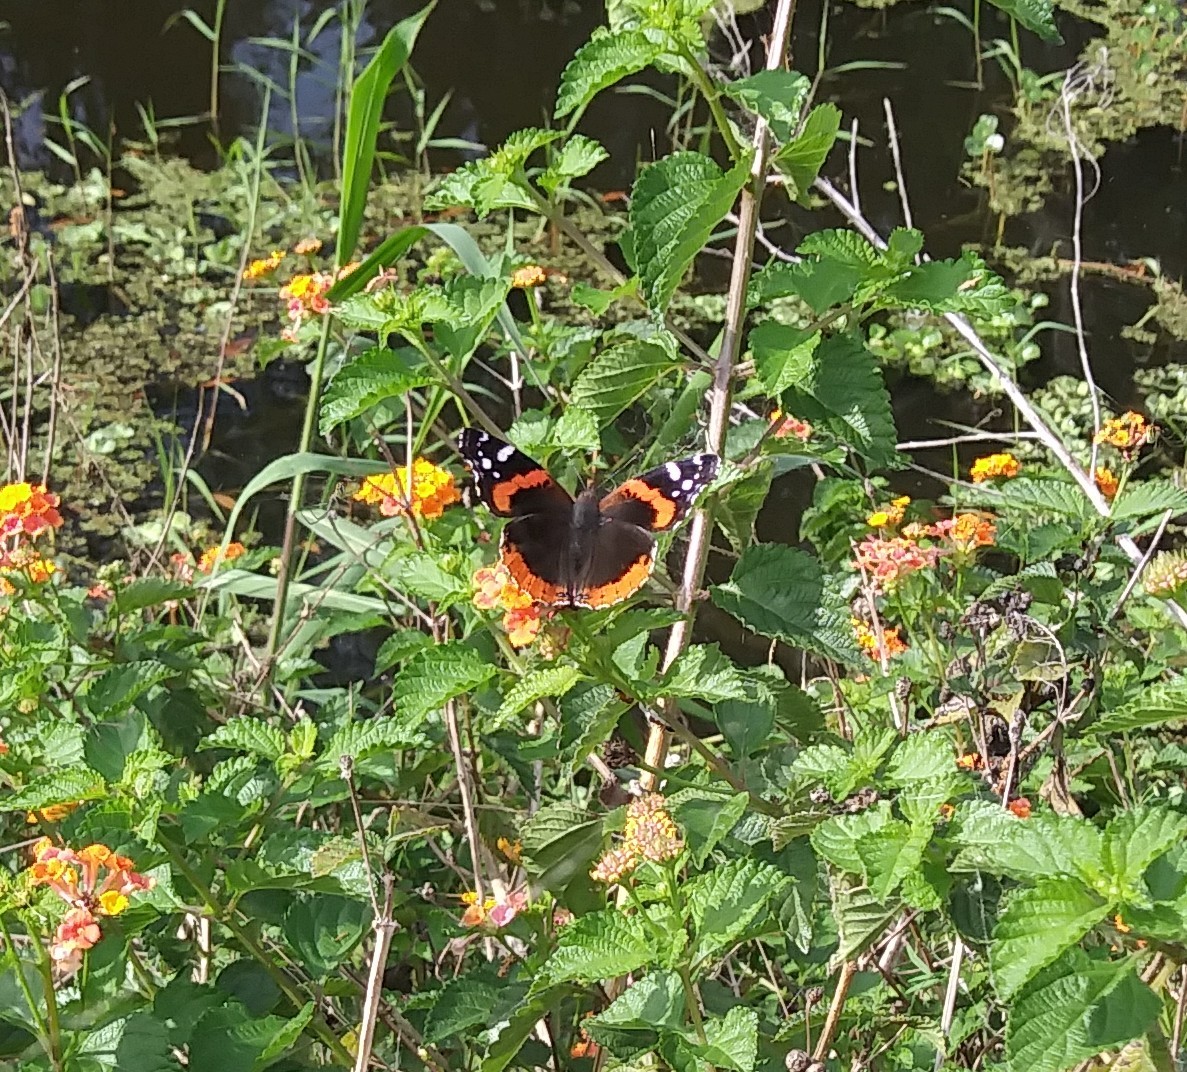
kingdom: Animalia
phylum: Arthropoda
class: Insecta
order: Lepidoptera
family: Nymphalidae
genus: Vanessa
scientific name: Vanessa atalanta
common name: Red admiral
